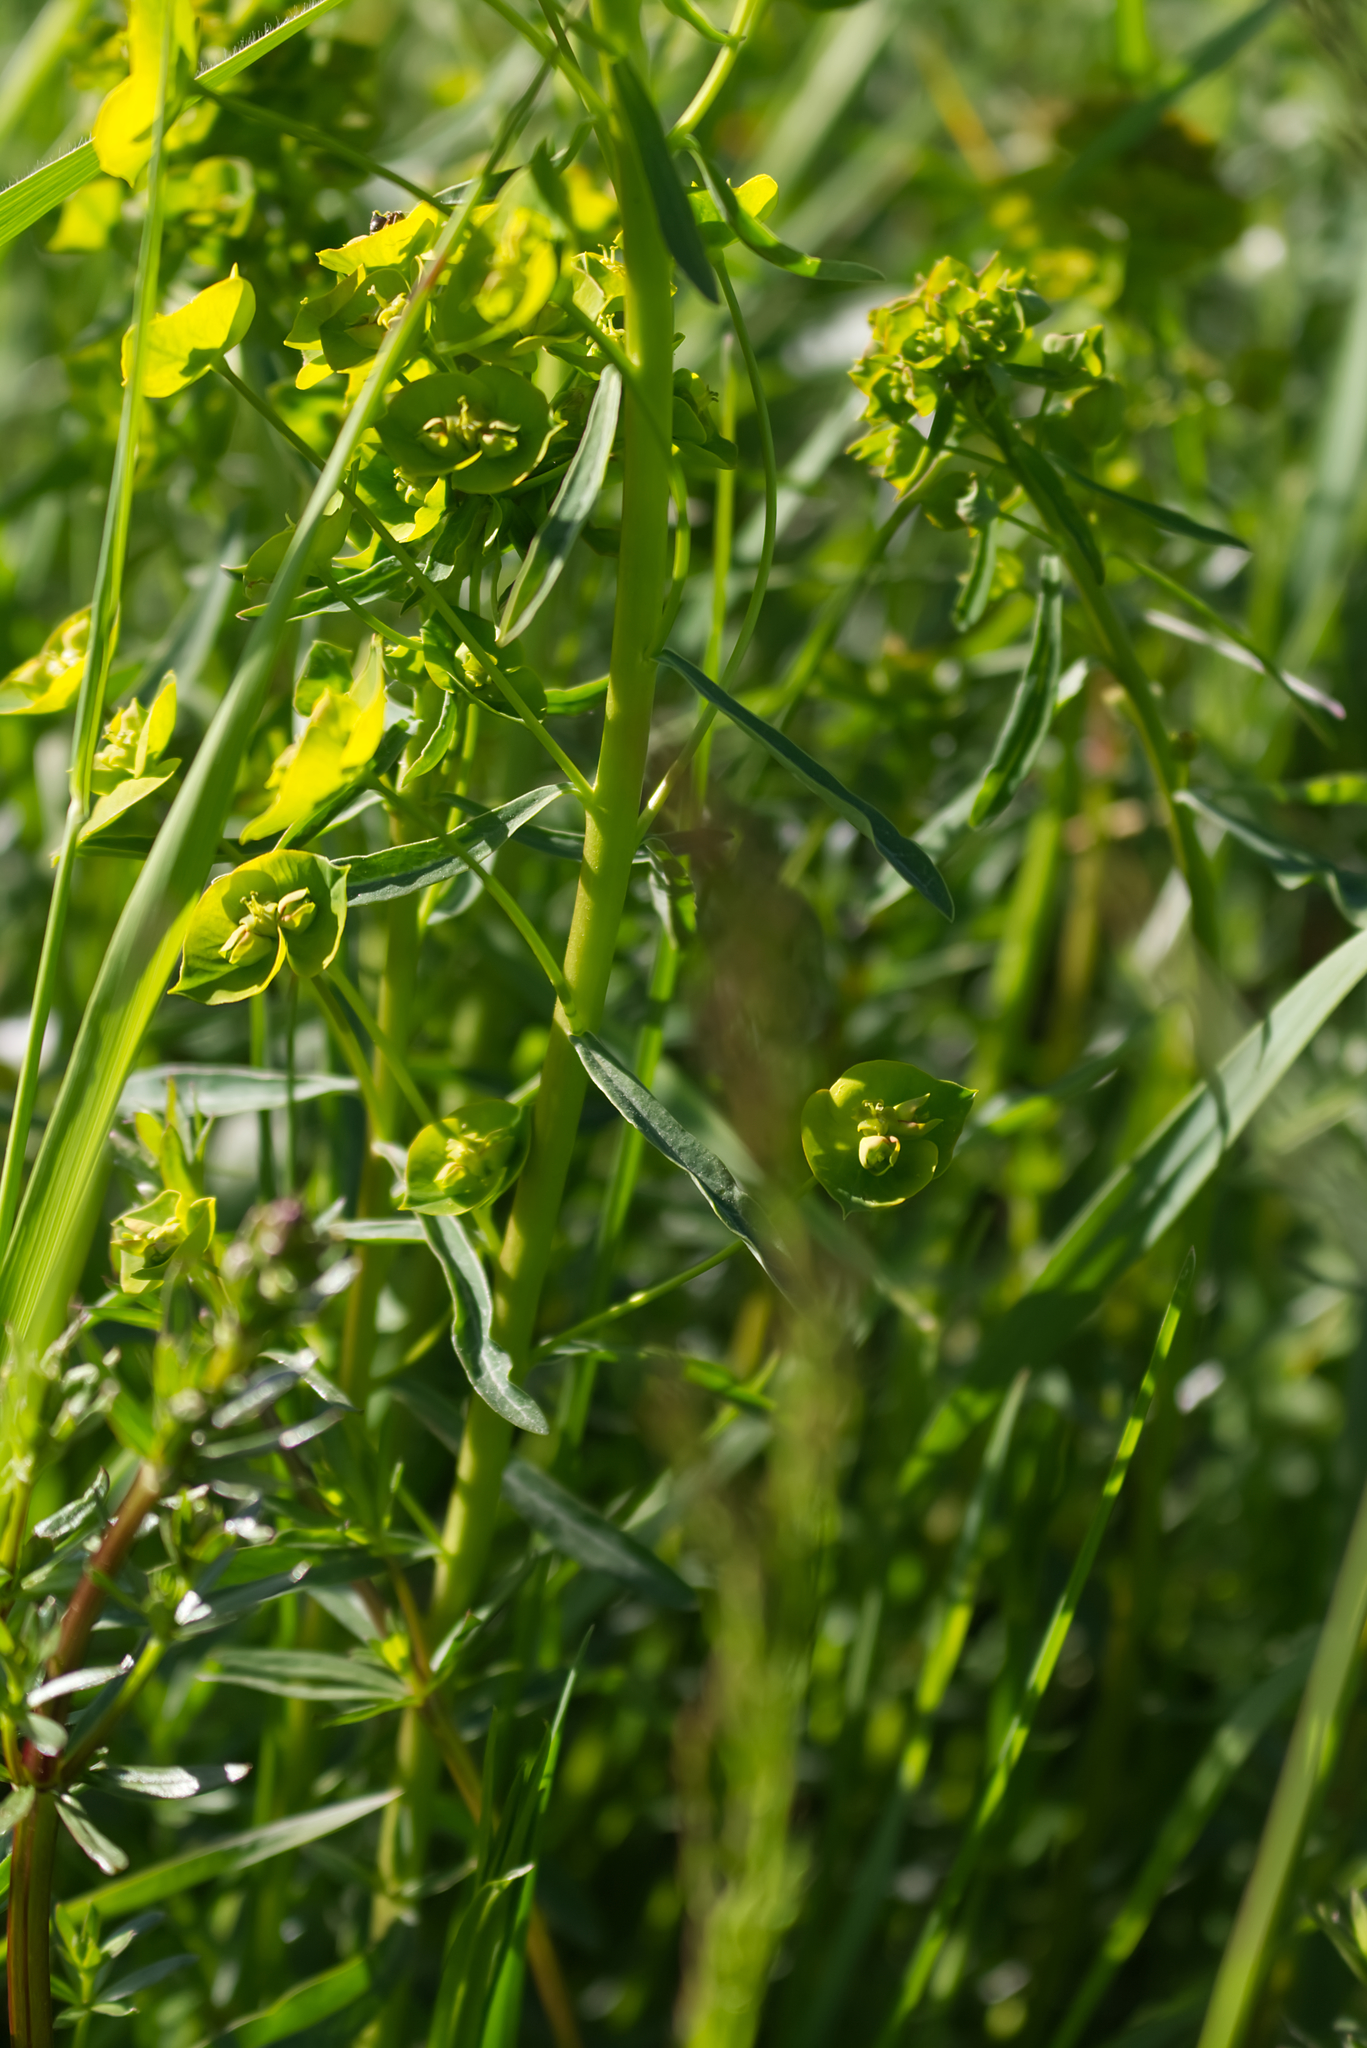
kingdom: Plantae
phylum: Tracheophyta
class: Magnoliopsida
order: Malpighiales
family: Euphorbiaceae
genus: Euphorbia
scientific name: Euphorbia esula
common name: Leafy spurge
